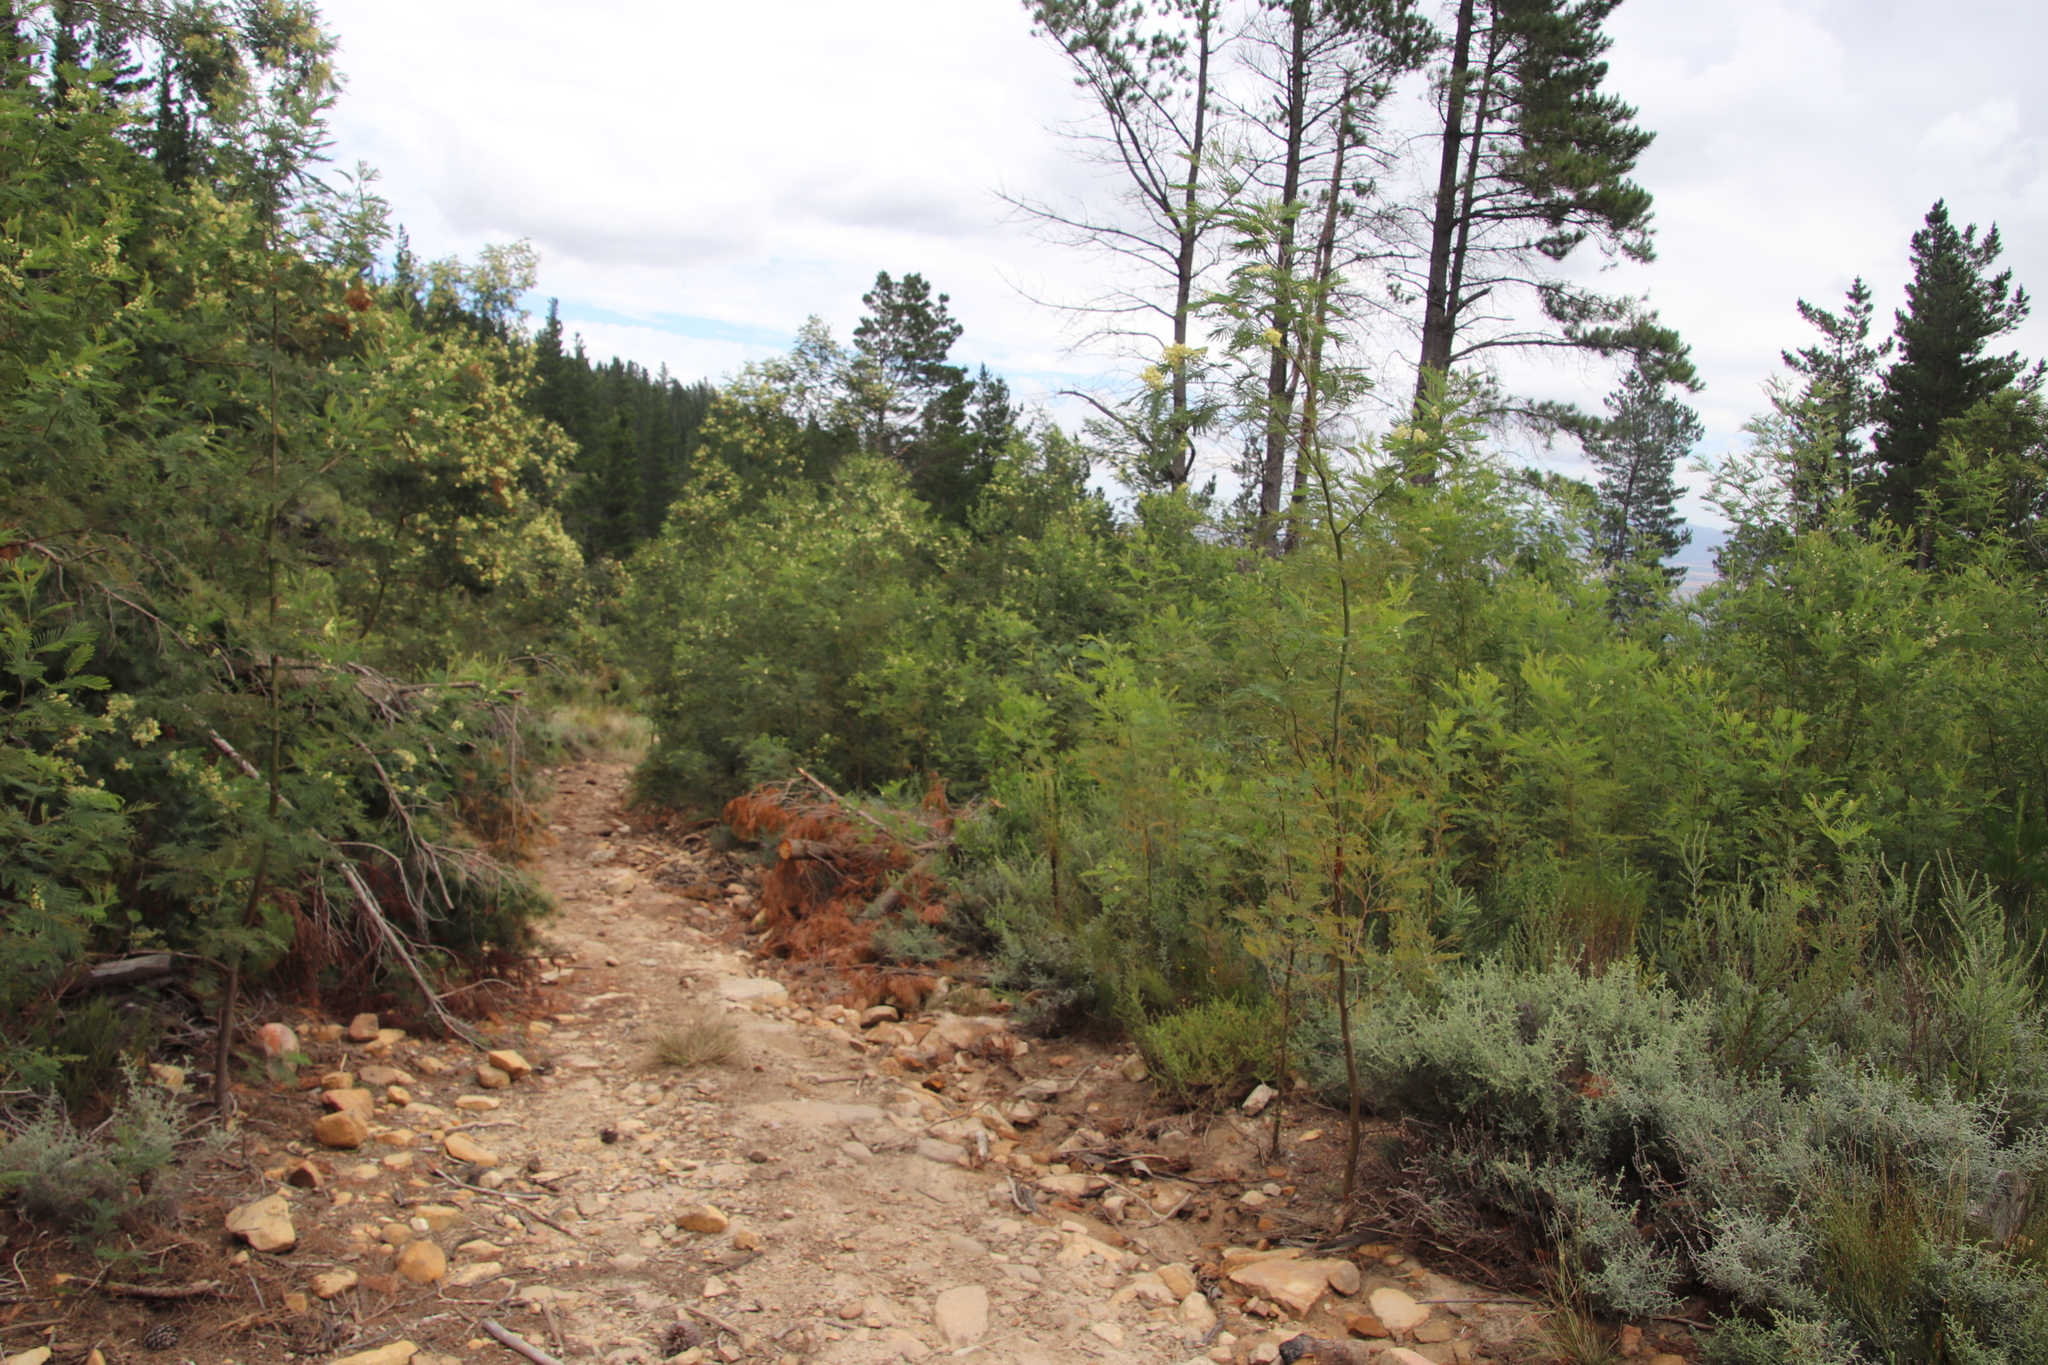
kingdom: Plantae
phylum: Tracheophyta
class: Magnoliopsida
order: Fabales
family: Fabaceae
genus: Acacia
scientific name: Acacia mearnsii
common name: Black wattle
